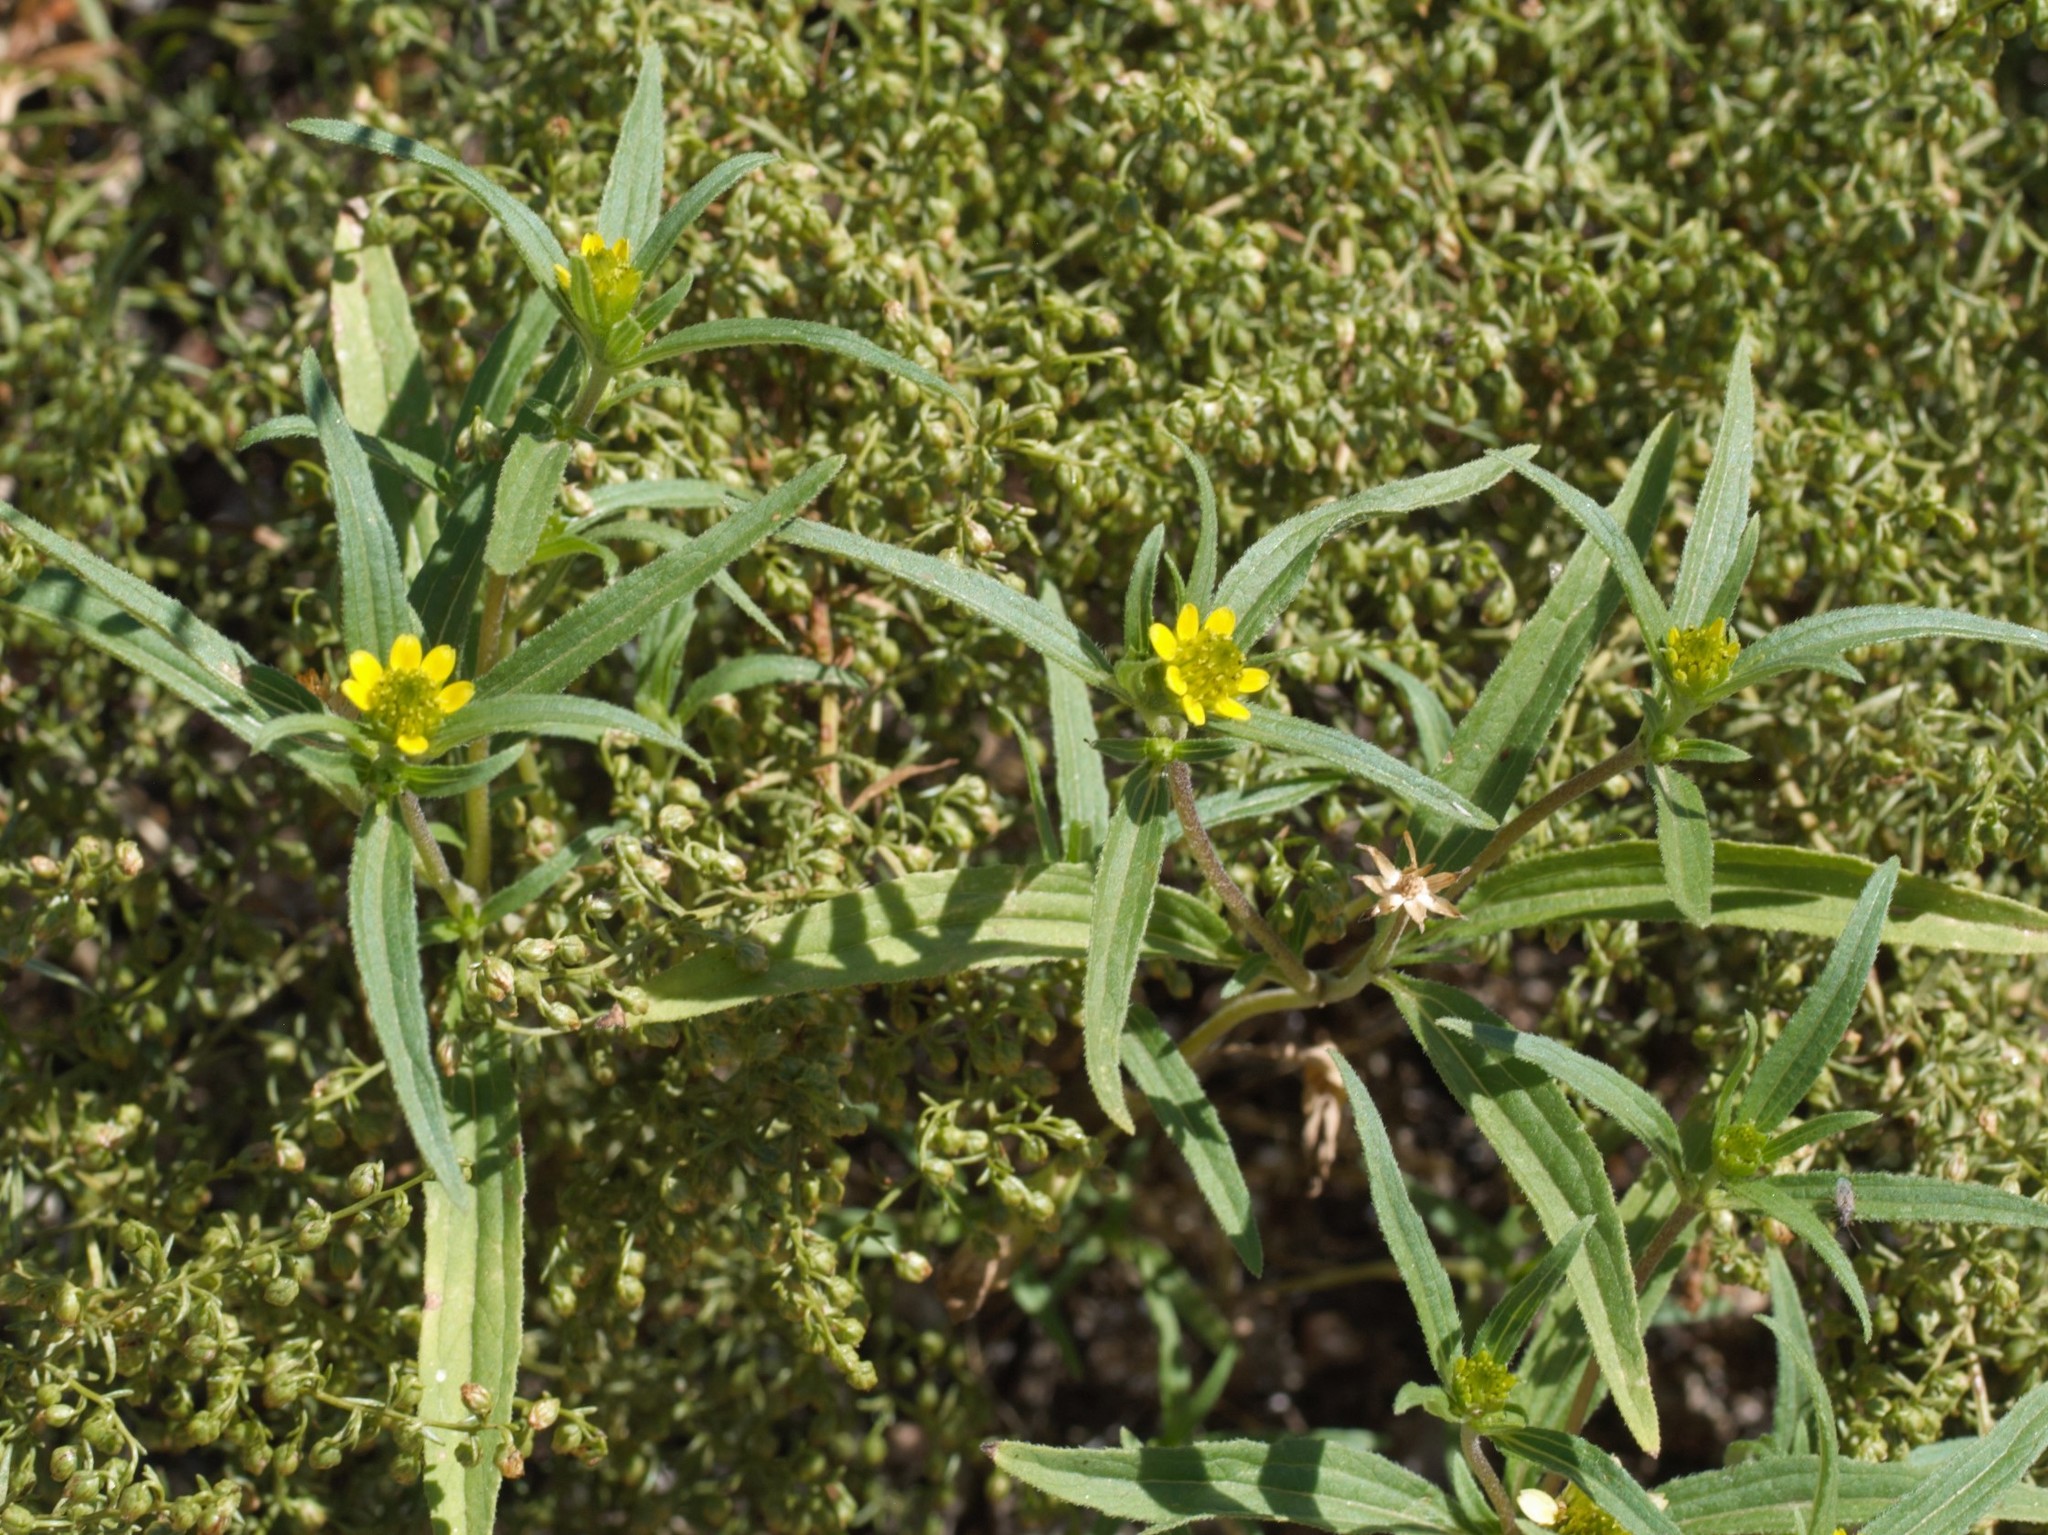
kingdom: Plantae
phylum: Tracheophyta
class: Magnoliopsida
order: Asterales
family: Asteraceae
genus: Sanvitalia
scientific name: Sanvitalia abertii
